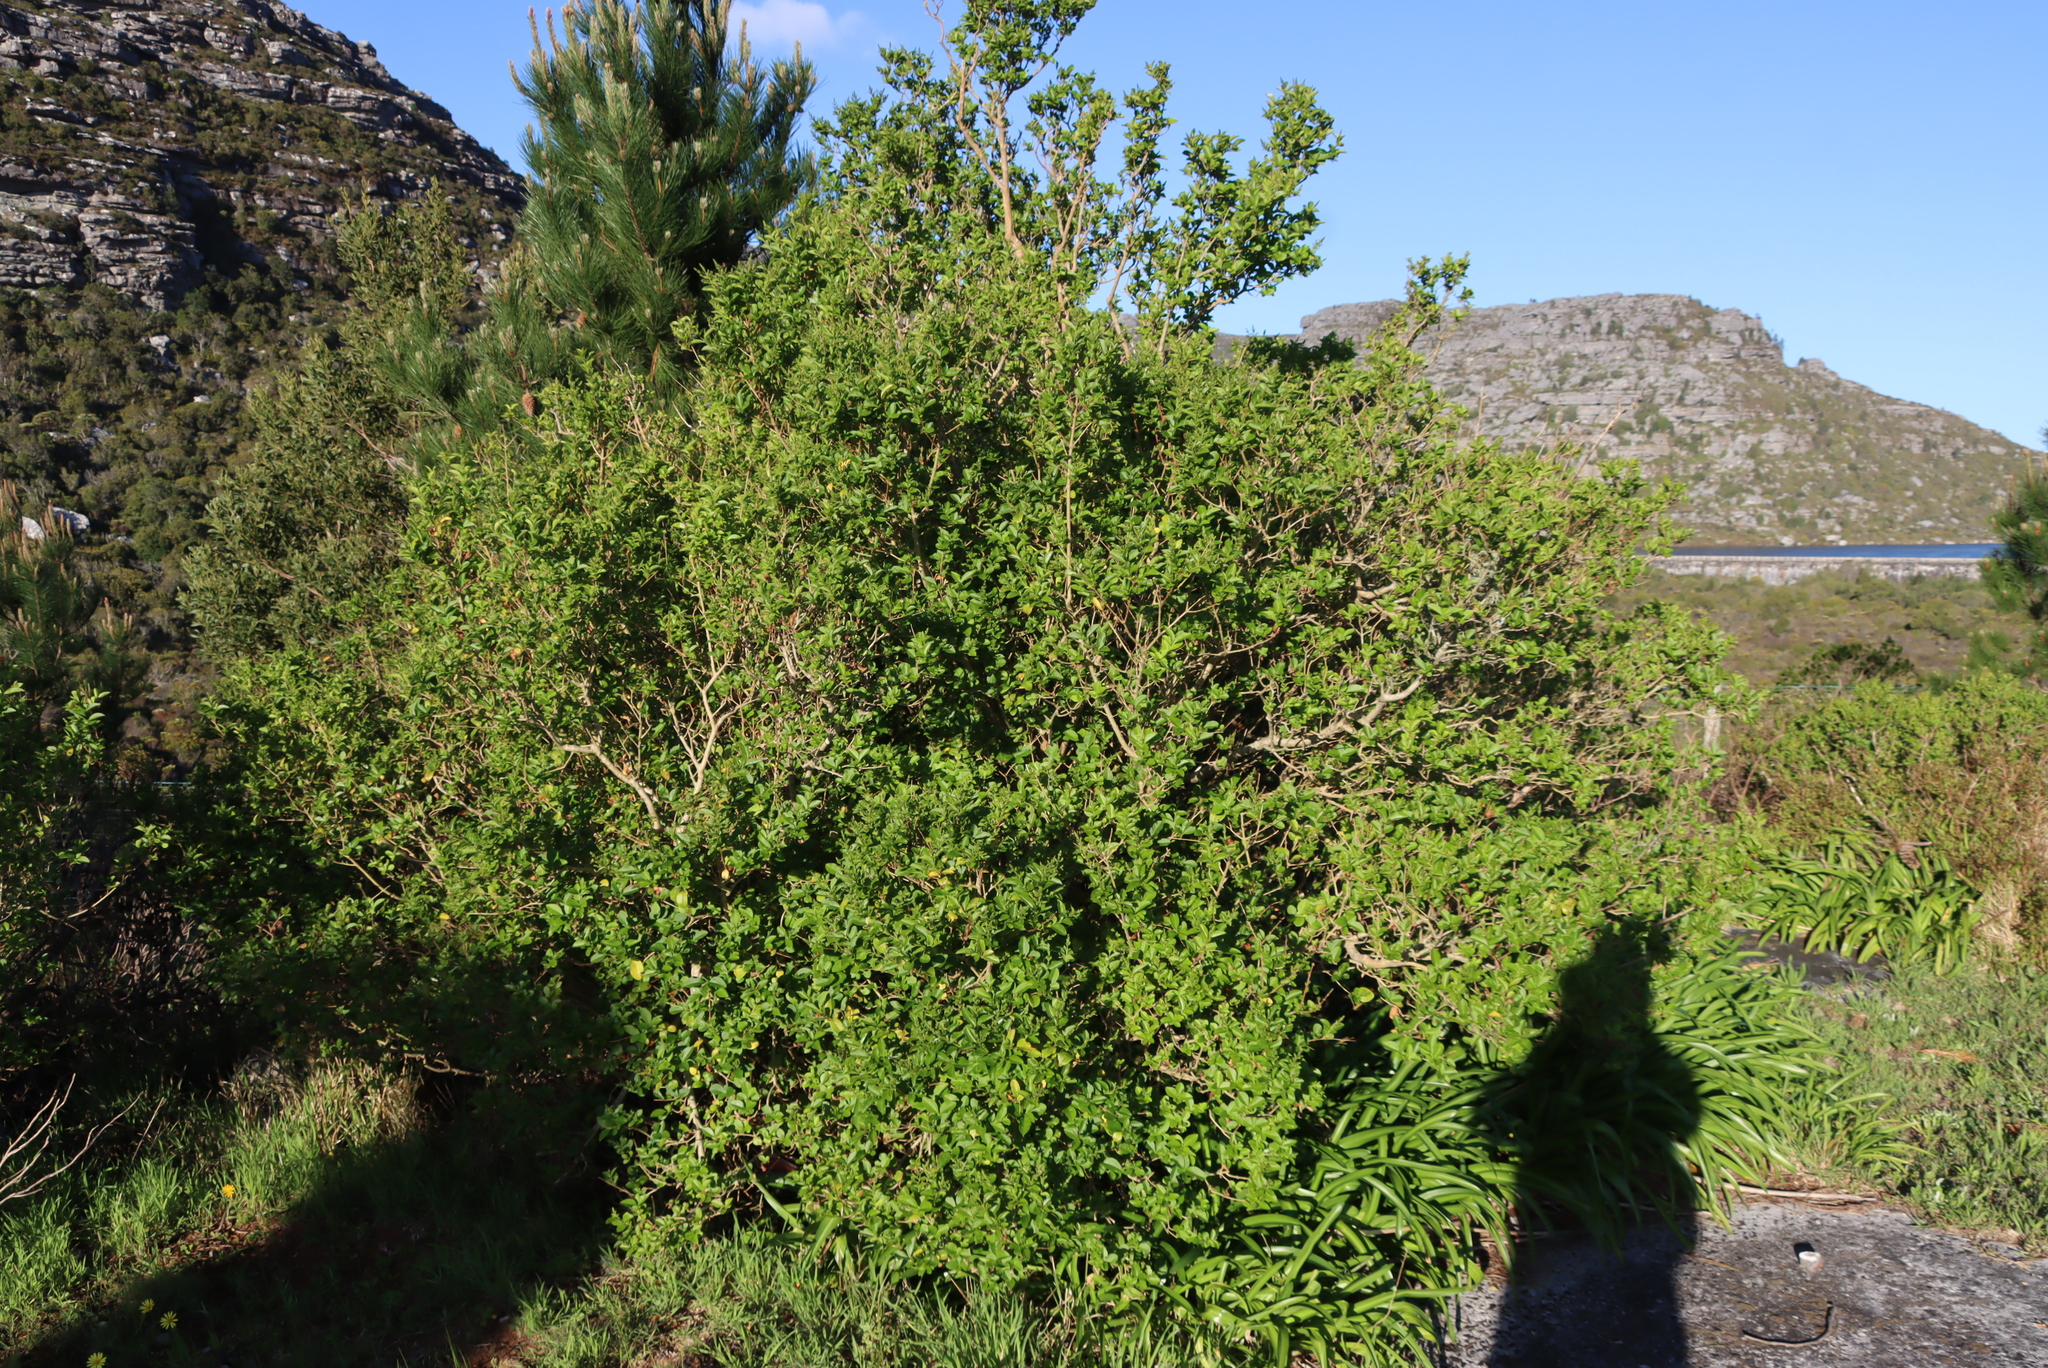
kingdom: Plantae
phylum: Tracheophyta
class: Magnoliopsida
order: Lamiales
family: Oleaceae
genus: Ligustrum
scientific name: Ligustrum ovalifolium
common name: California privet
